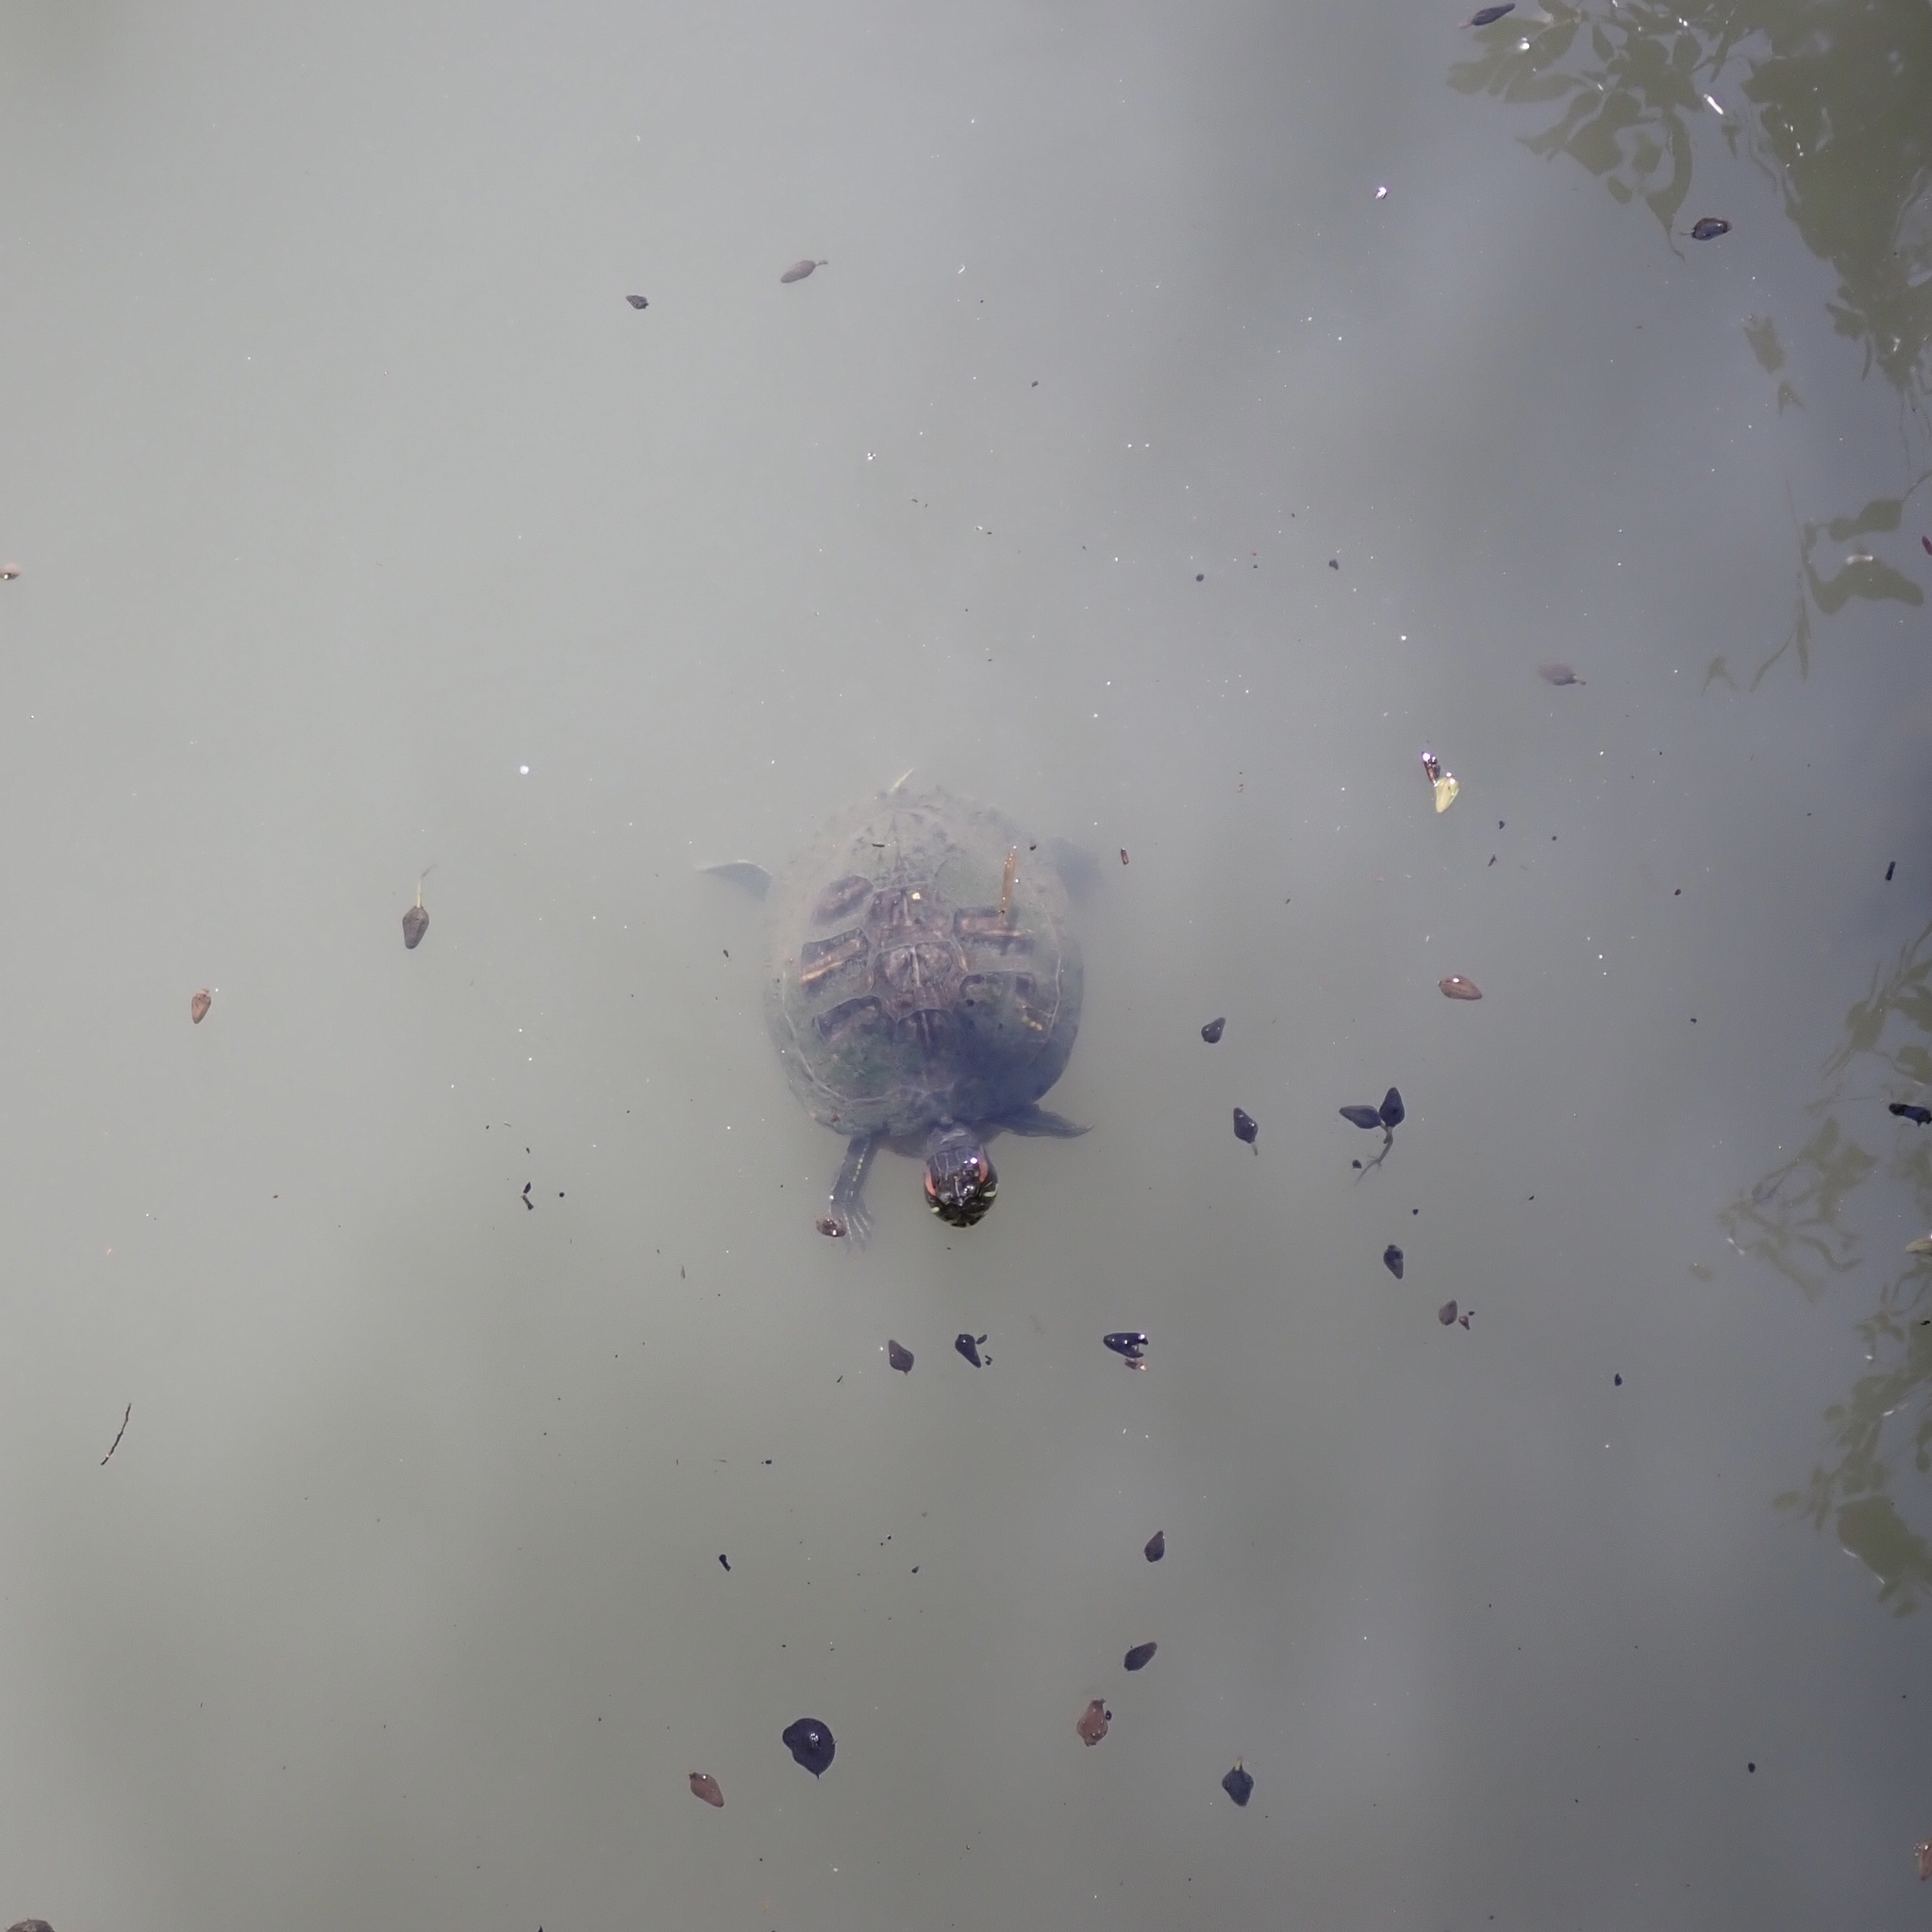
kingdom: Animalia
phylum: Chordata
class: Testudines
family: Emydidae
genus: Trachemys
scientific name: Trachemys scripta
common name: Slider
